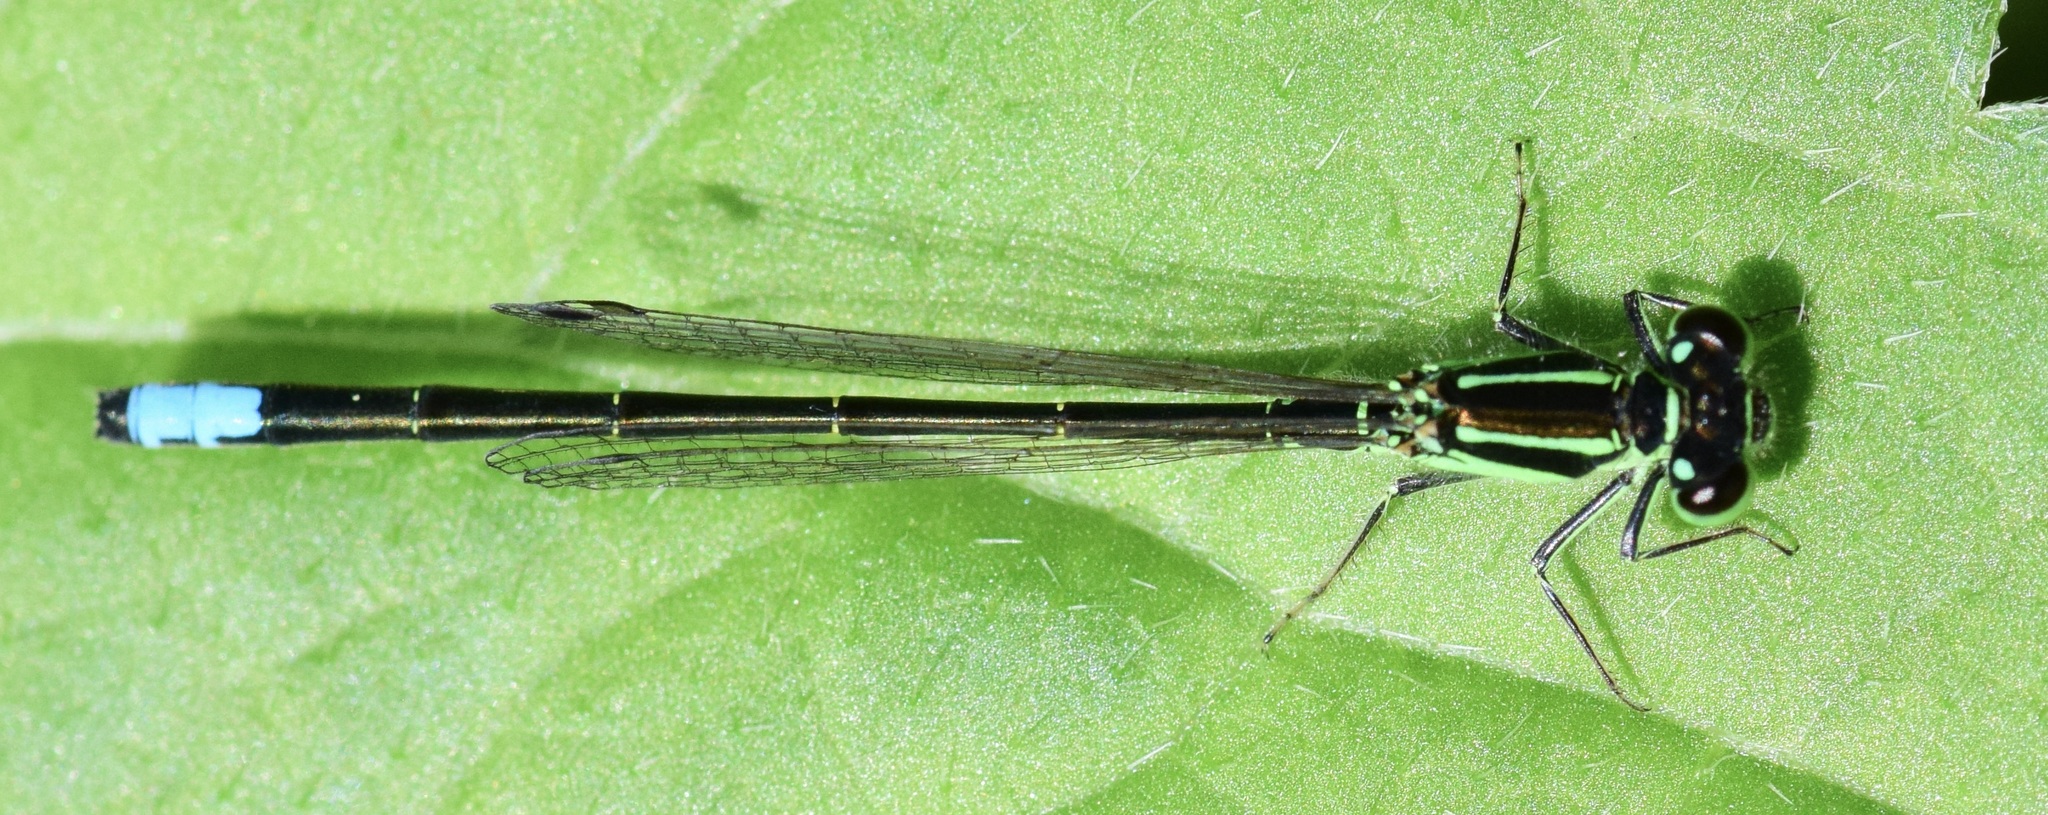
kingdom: Animalia
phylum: Arthropoda
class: Insecta
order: Odonata
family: Coenagrionidae
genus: Ischnura
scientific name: Ischnura verticalis
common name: Eastern forktail
